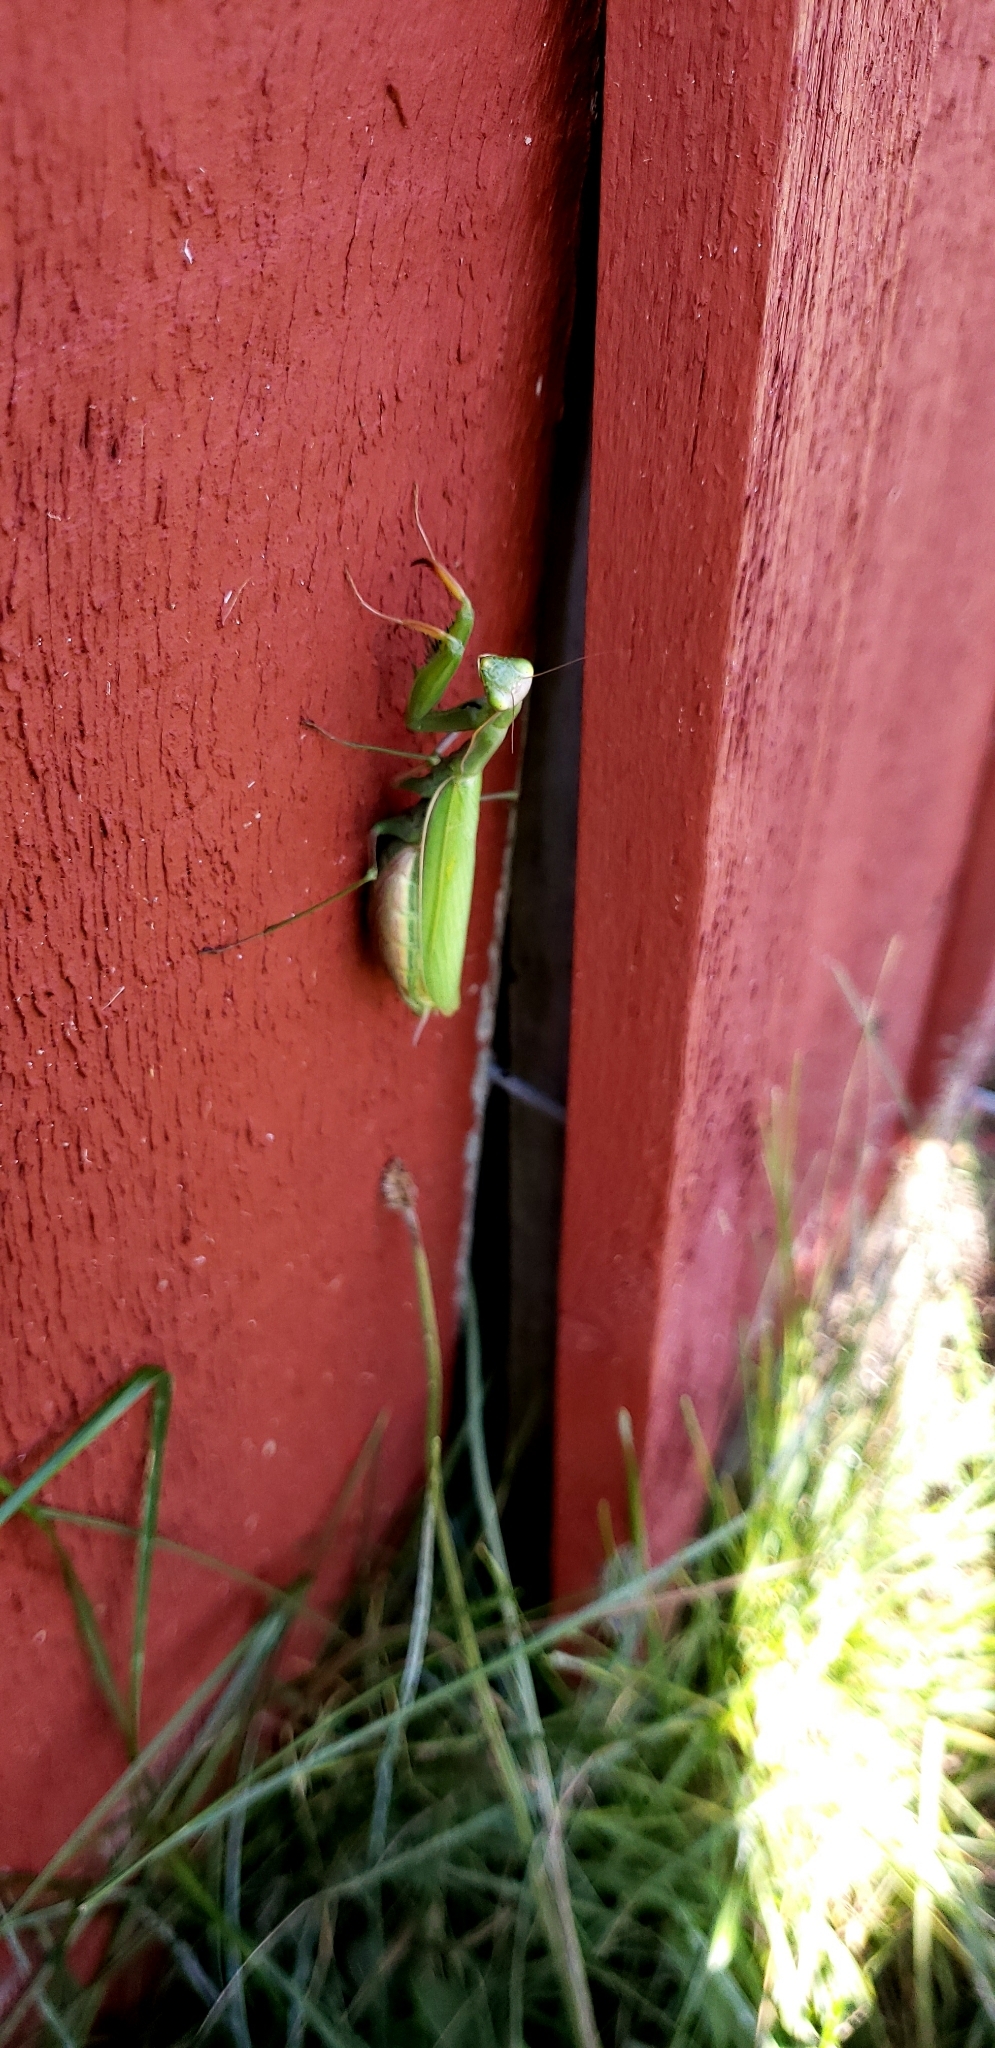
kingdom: Animalia
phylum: Arthropoda
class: Insecta
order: Mantodea
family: Mantidae
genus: Mantis
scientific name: Mantis religiosa
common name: Praying mantis
